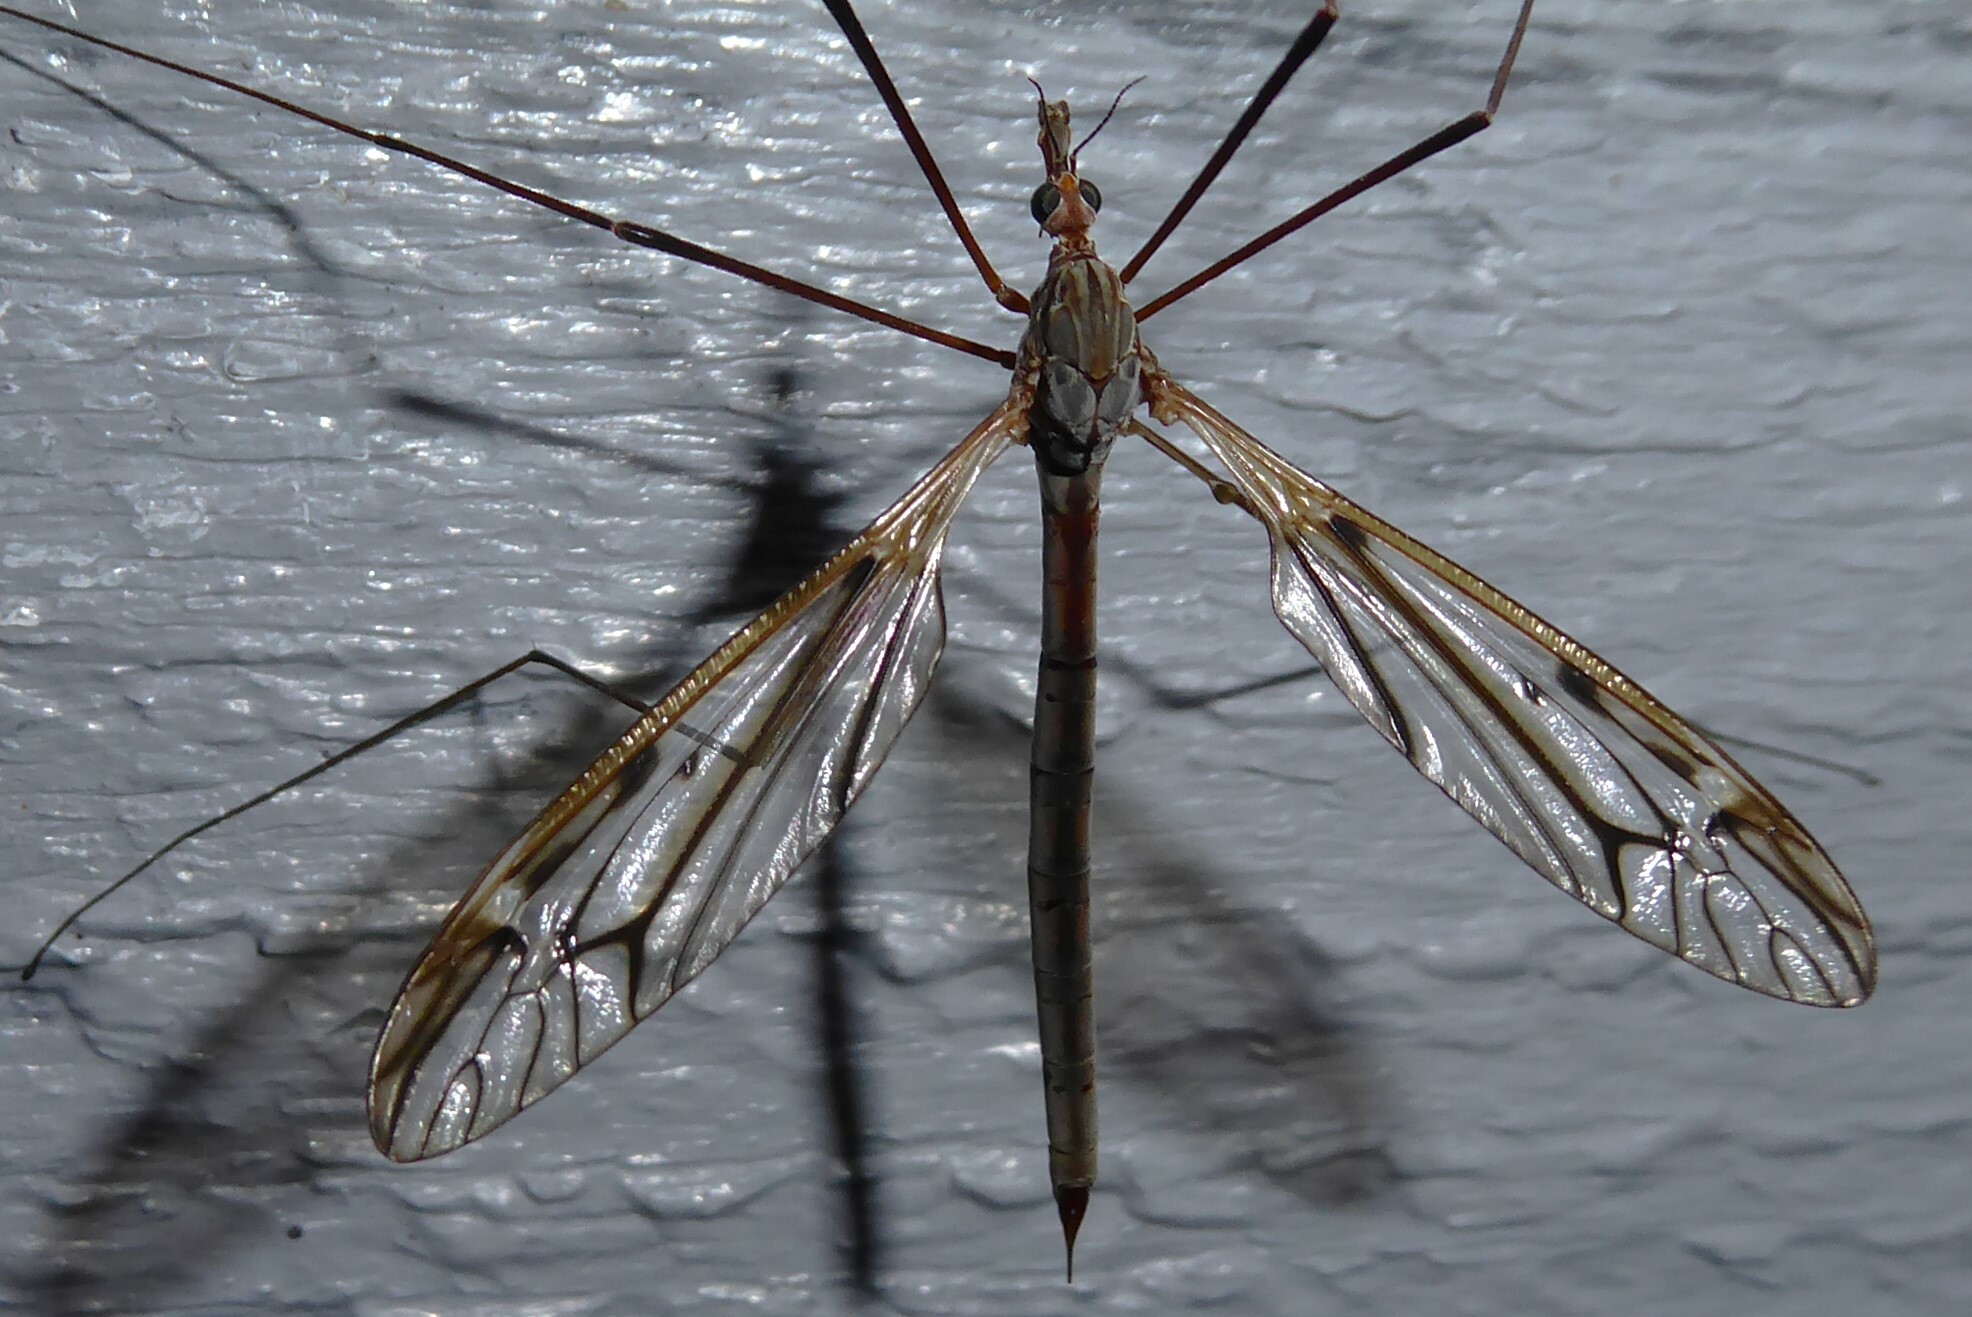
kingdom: Animalia
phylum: Arthropoda
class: Insecta
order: Diptera
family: Tipulidae
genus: Zelandotipula
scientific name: Zelandotipula novarae
